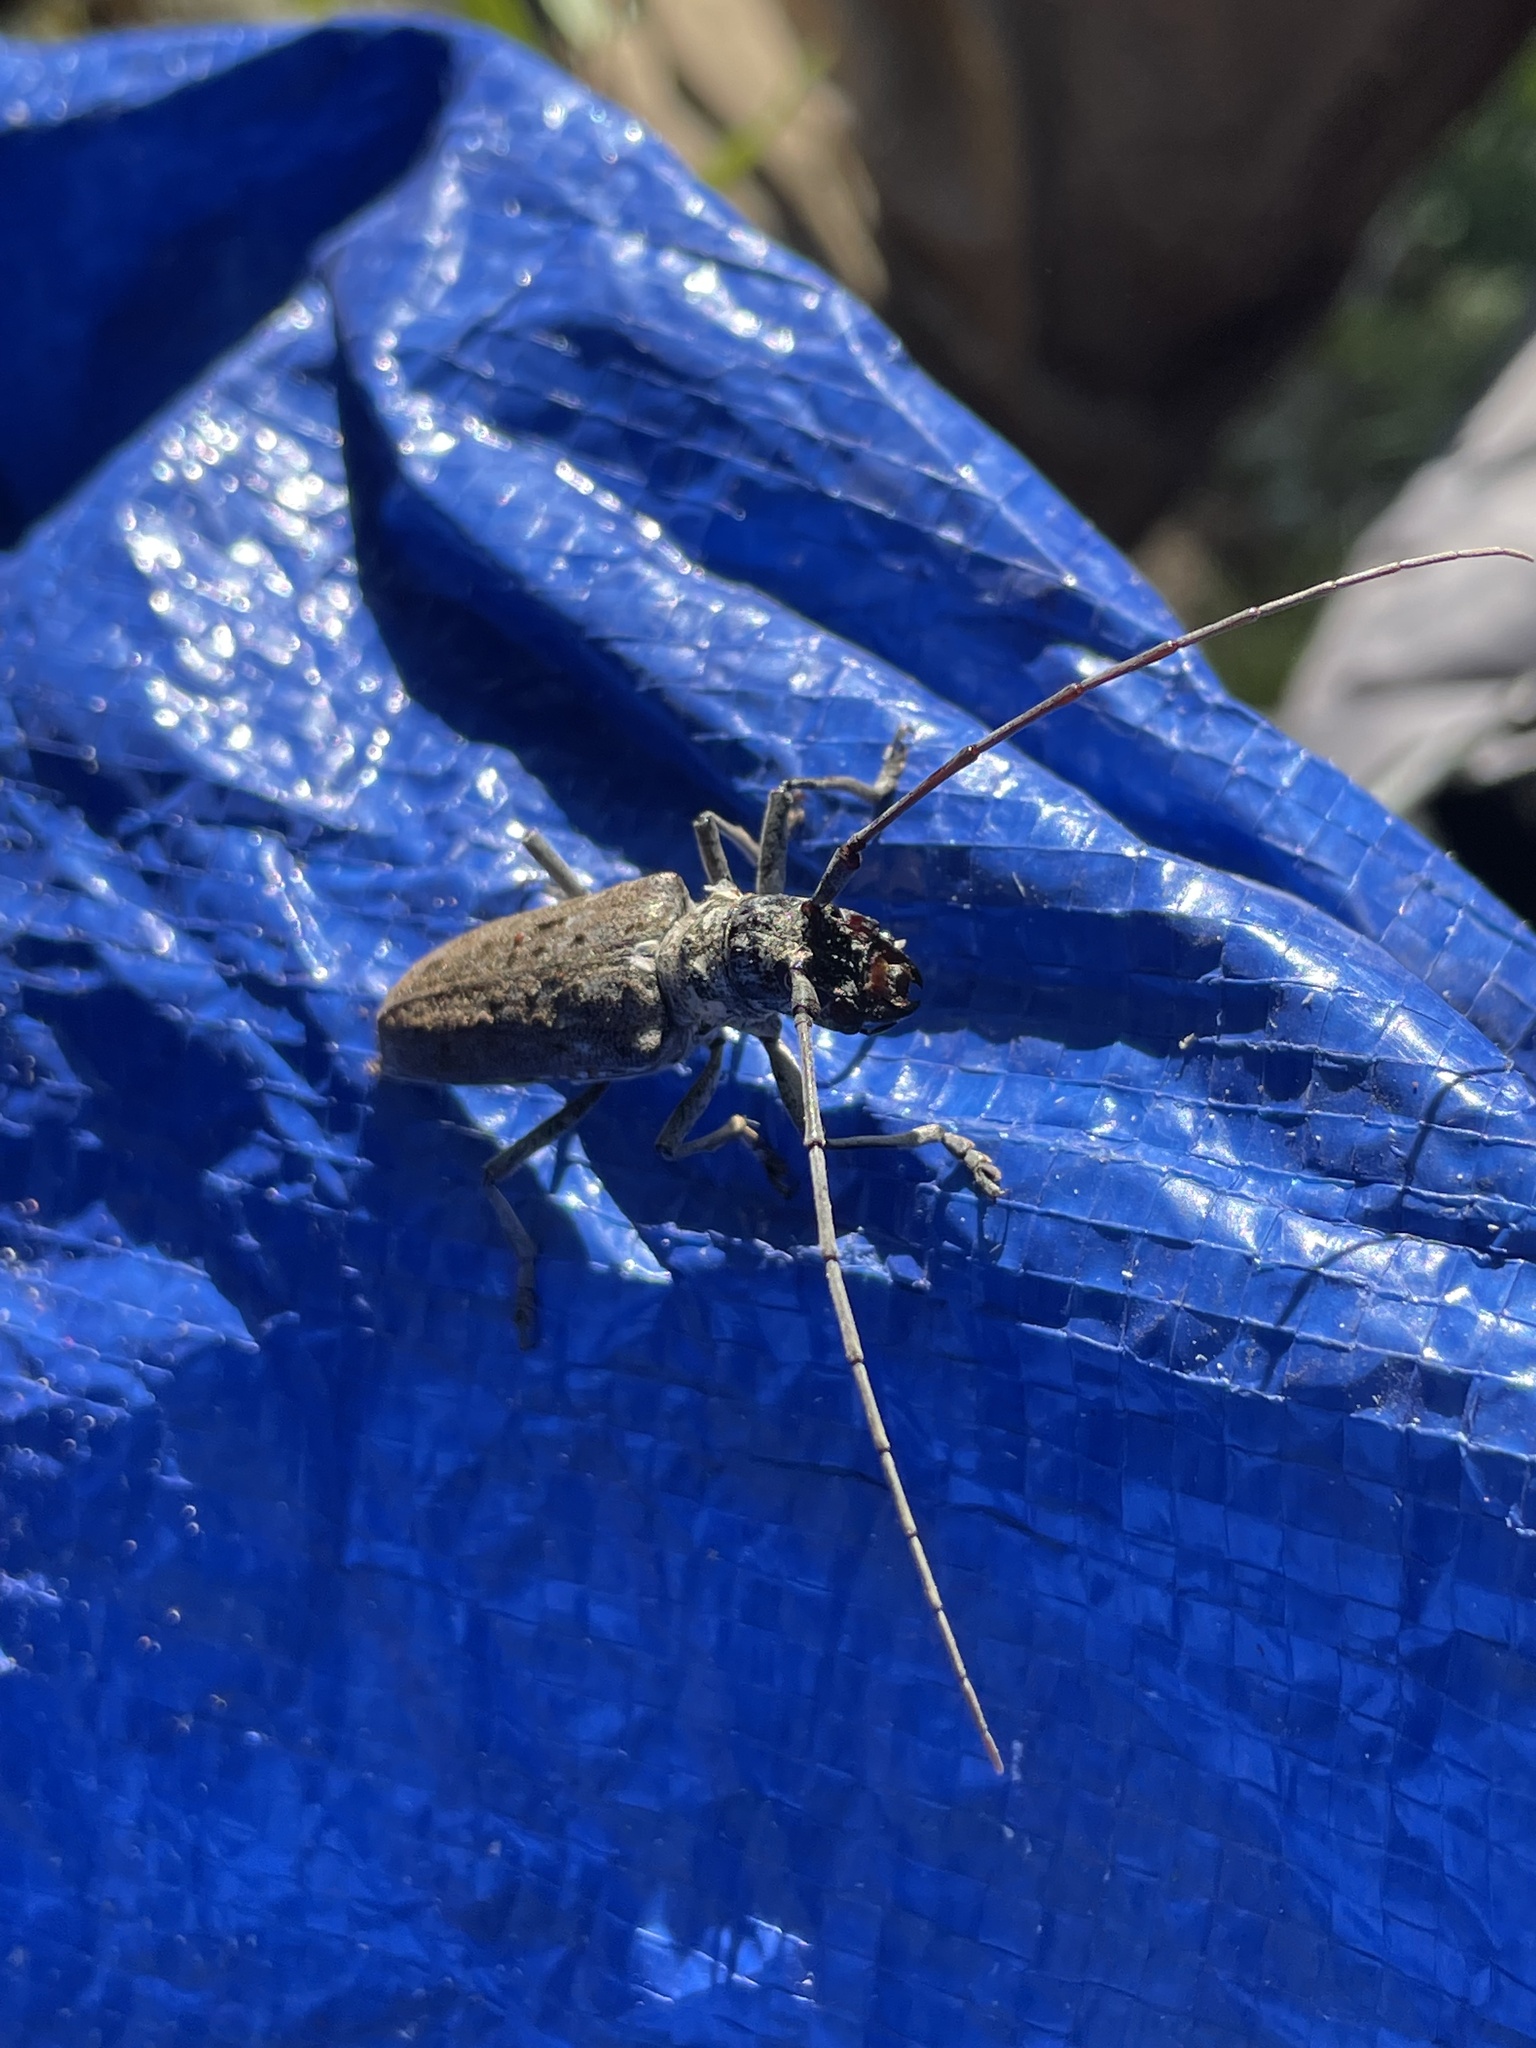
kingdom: Animalia
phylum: Arthropoda
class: Insecta
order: Coleoptera
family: Cerambycidae
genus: Monochamus
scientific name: Monochamus notatus
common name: Northeastern pine sawyer beetle
